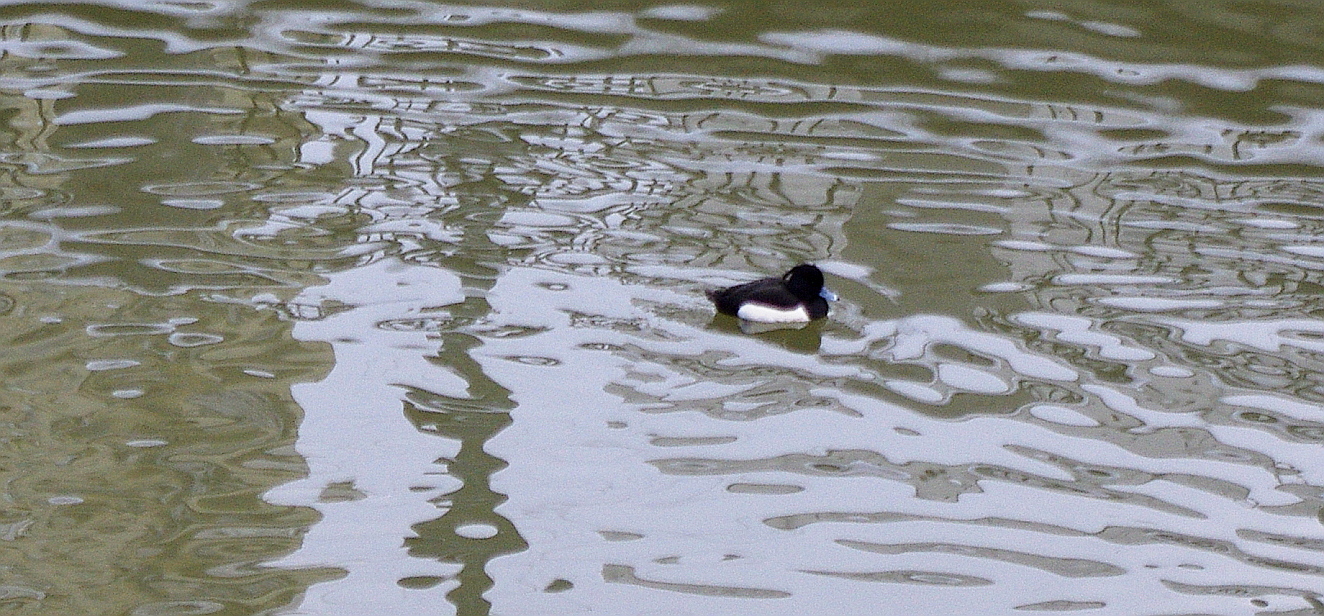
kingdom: Animalia
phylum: Chordata
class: Aves
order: Anseriformes
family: Anatidae
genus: Aythya
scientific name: Aythya fuligula
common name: Tufted duck
